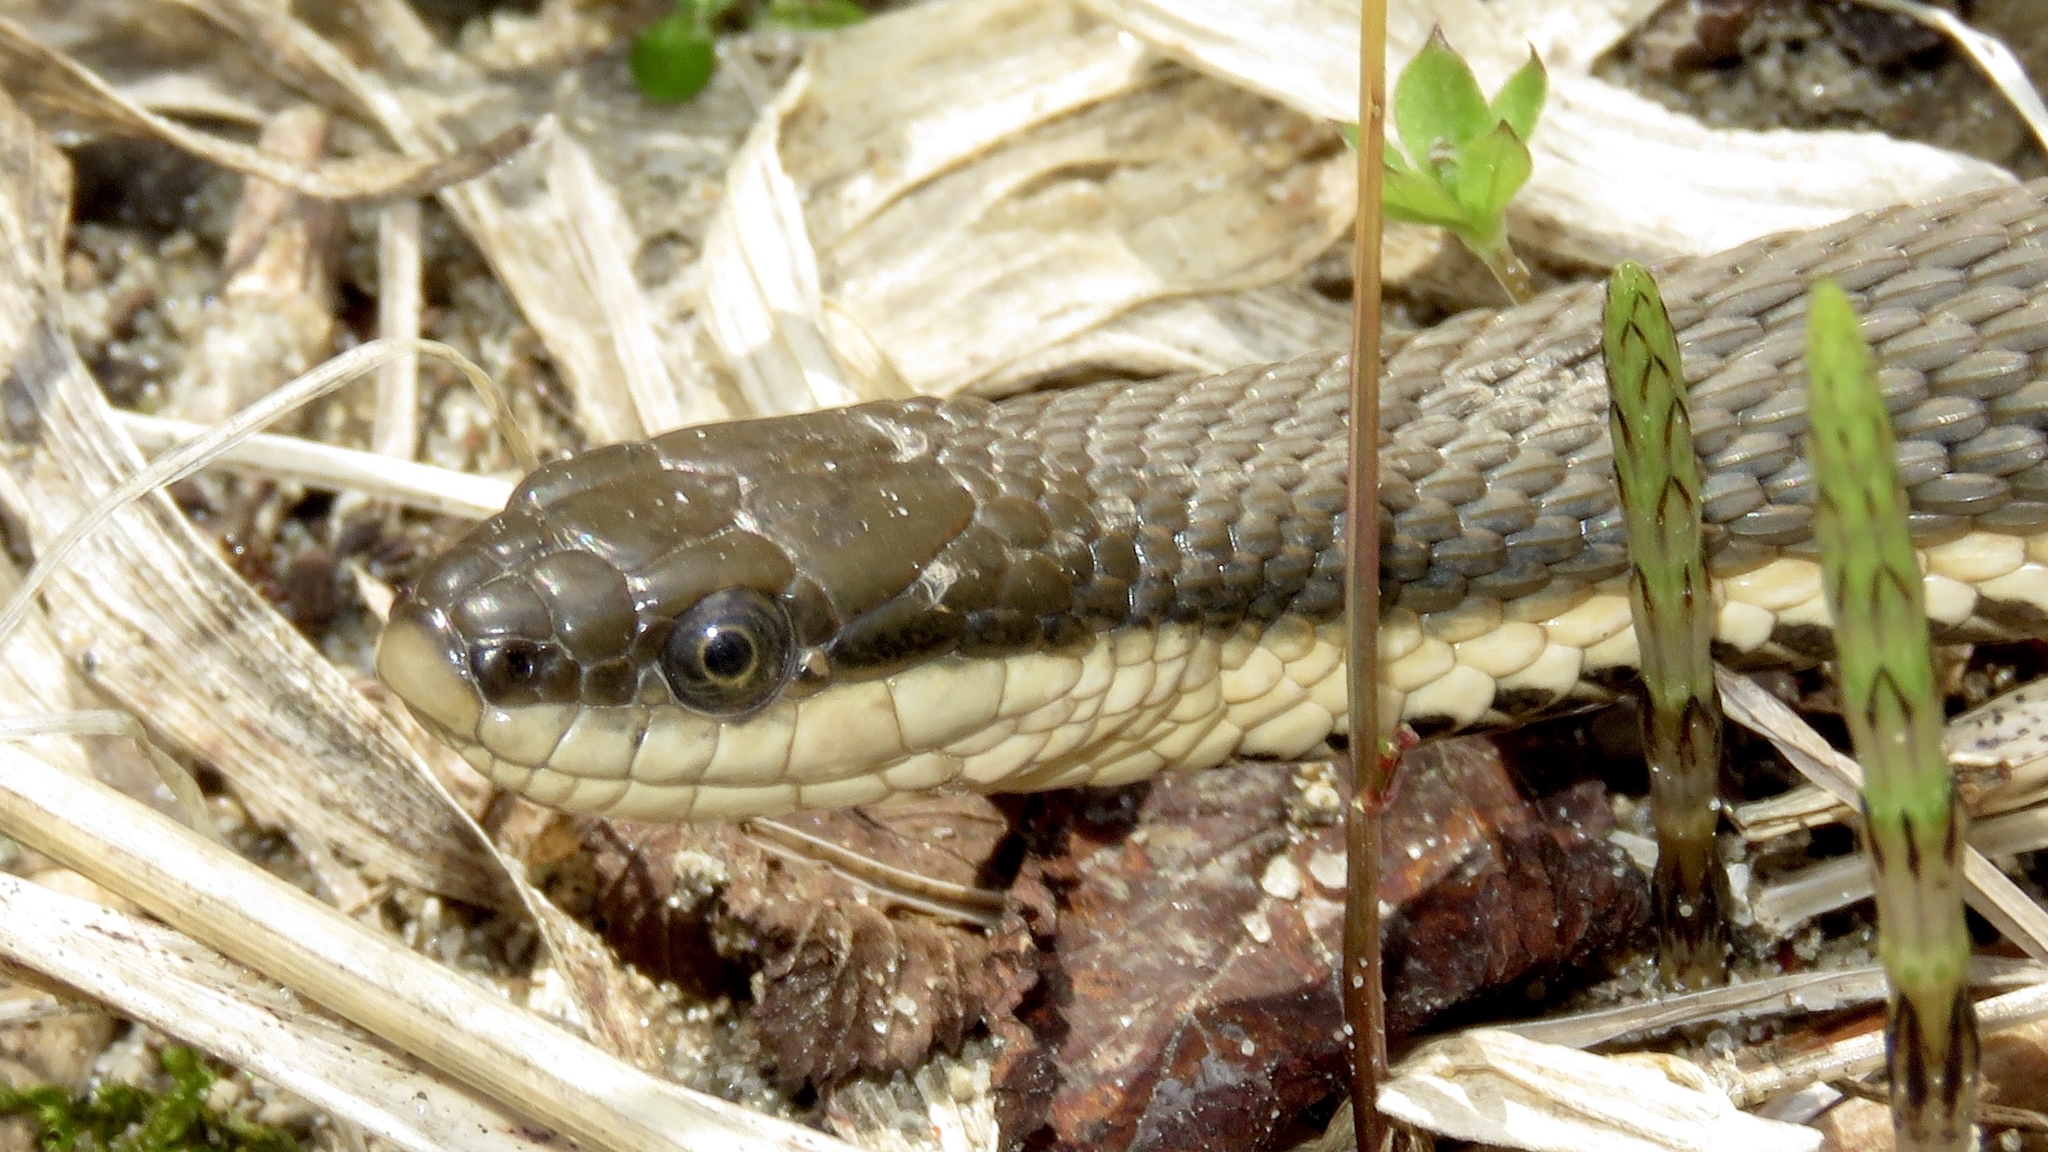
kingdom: Animalia
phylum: Chordata
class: Squamata
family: Colubridae
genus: Regina
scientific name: Regina septemvittata
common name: Queen snake
